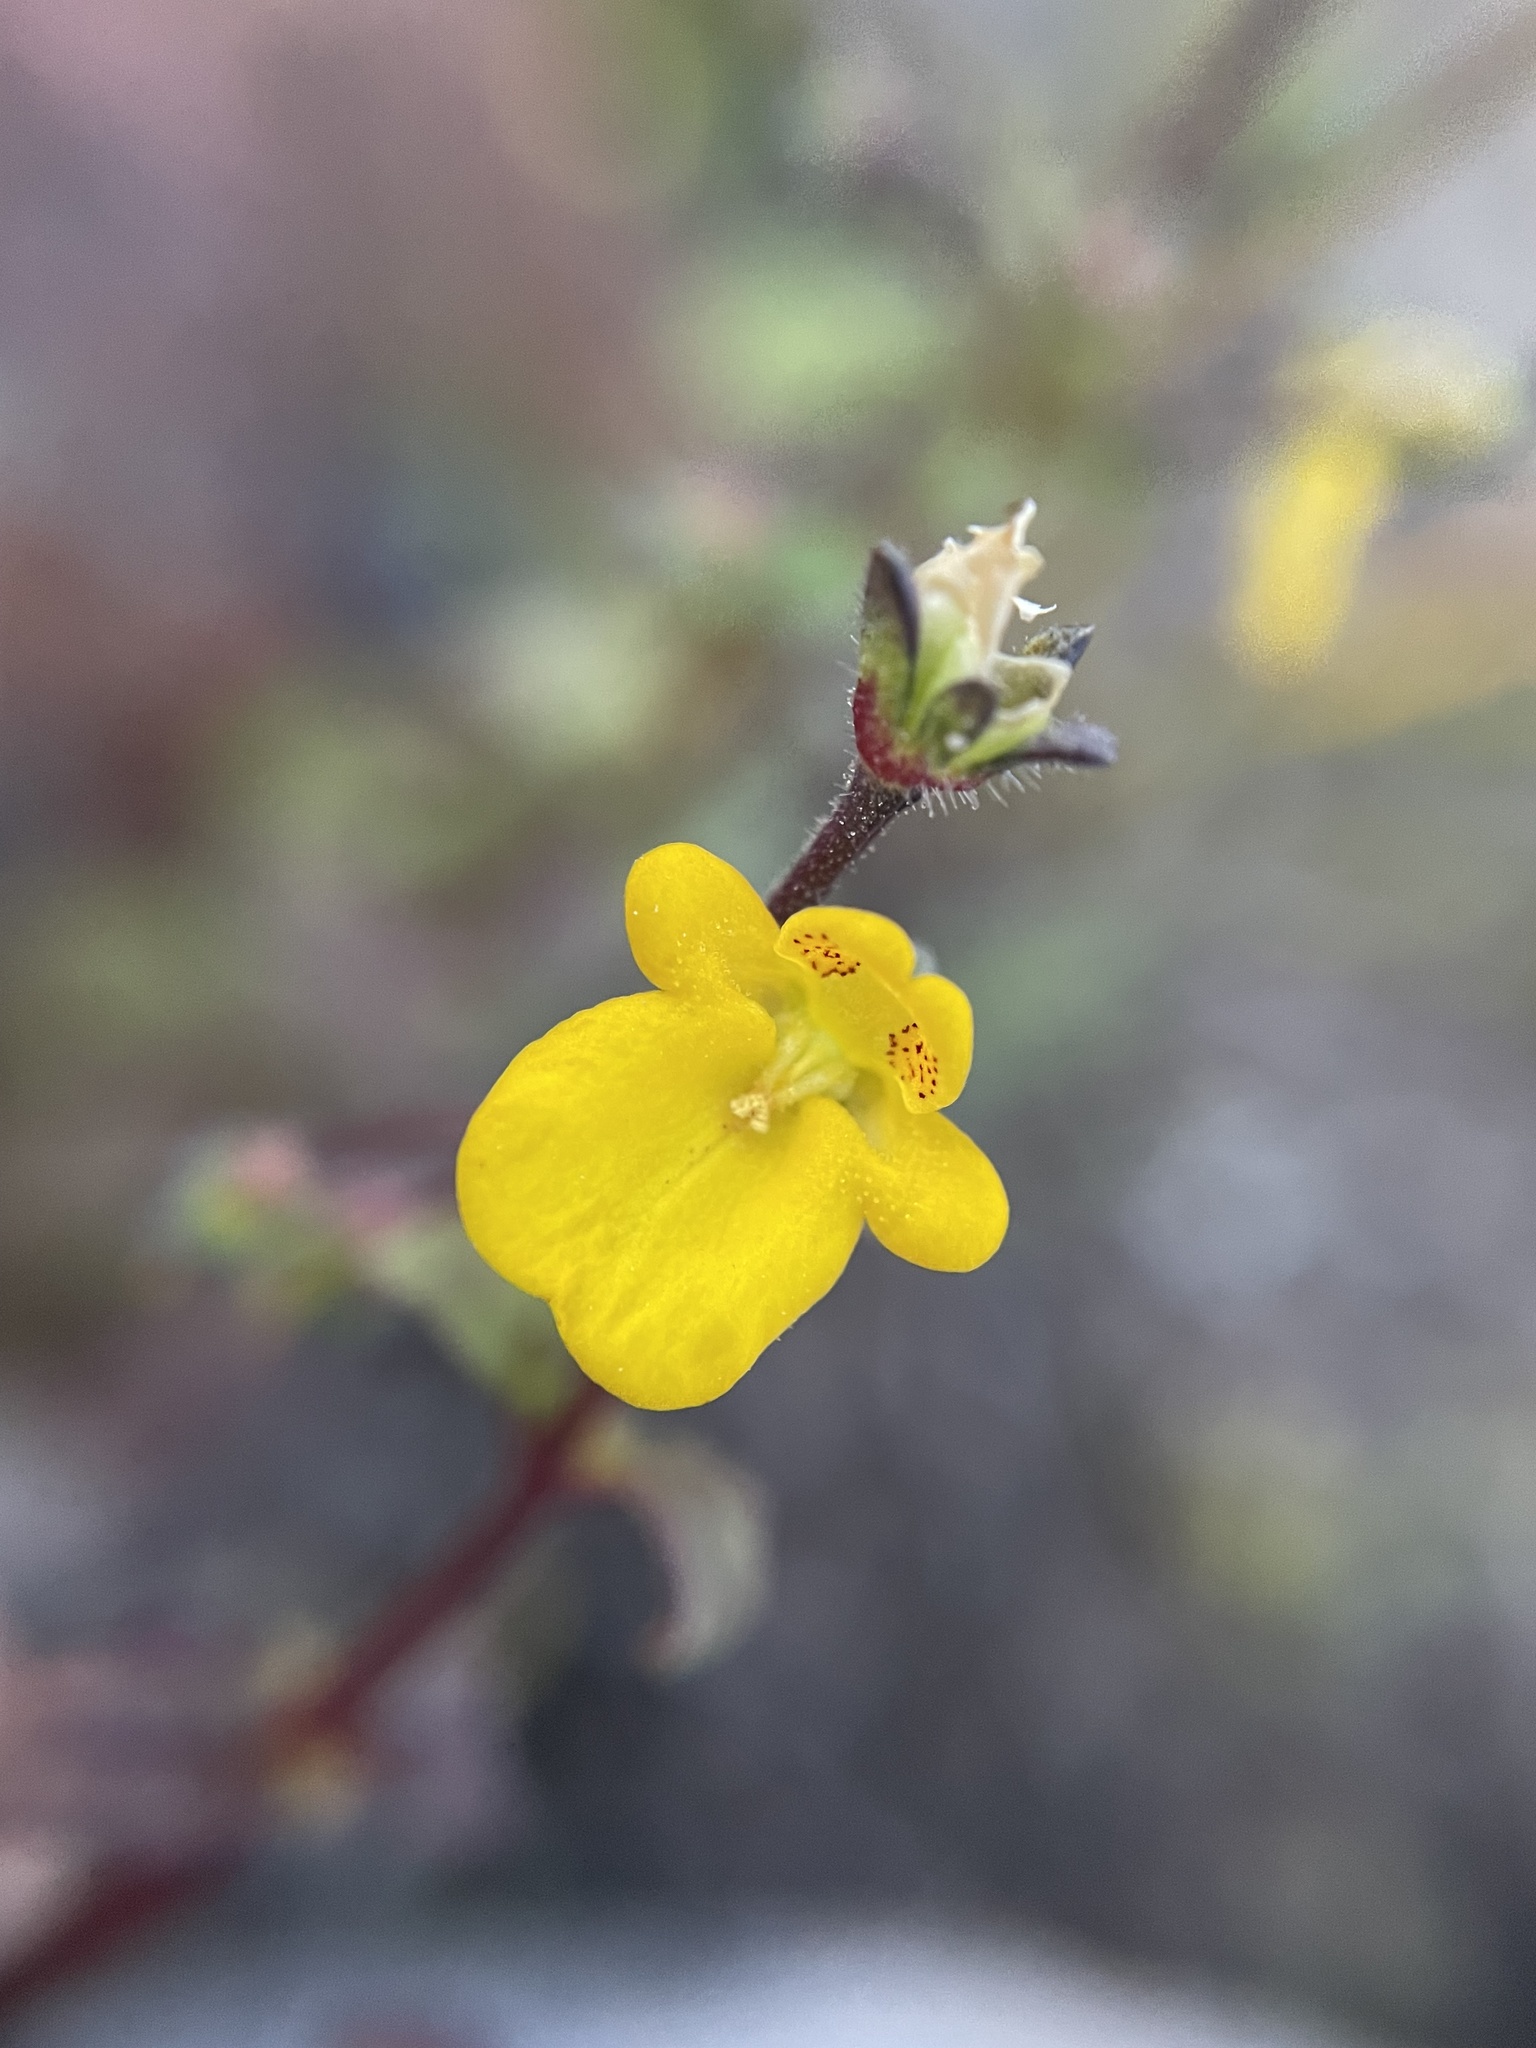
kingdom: Plantae
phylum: Tracheophyta
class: Magnoliopsida
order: Lamiales
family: Scrophulariaceae
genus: Hemimeris
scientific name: Hemimeris racemosa
